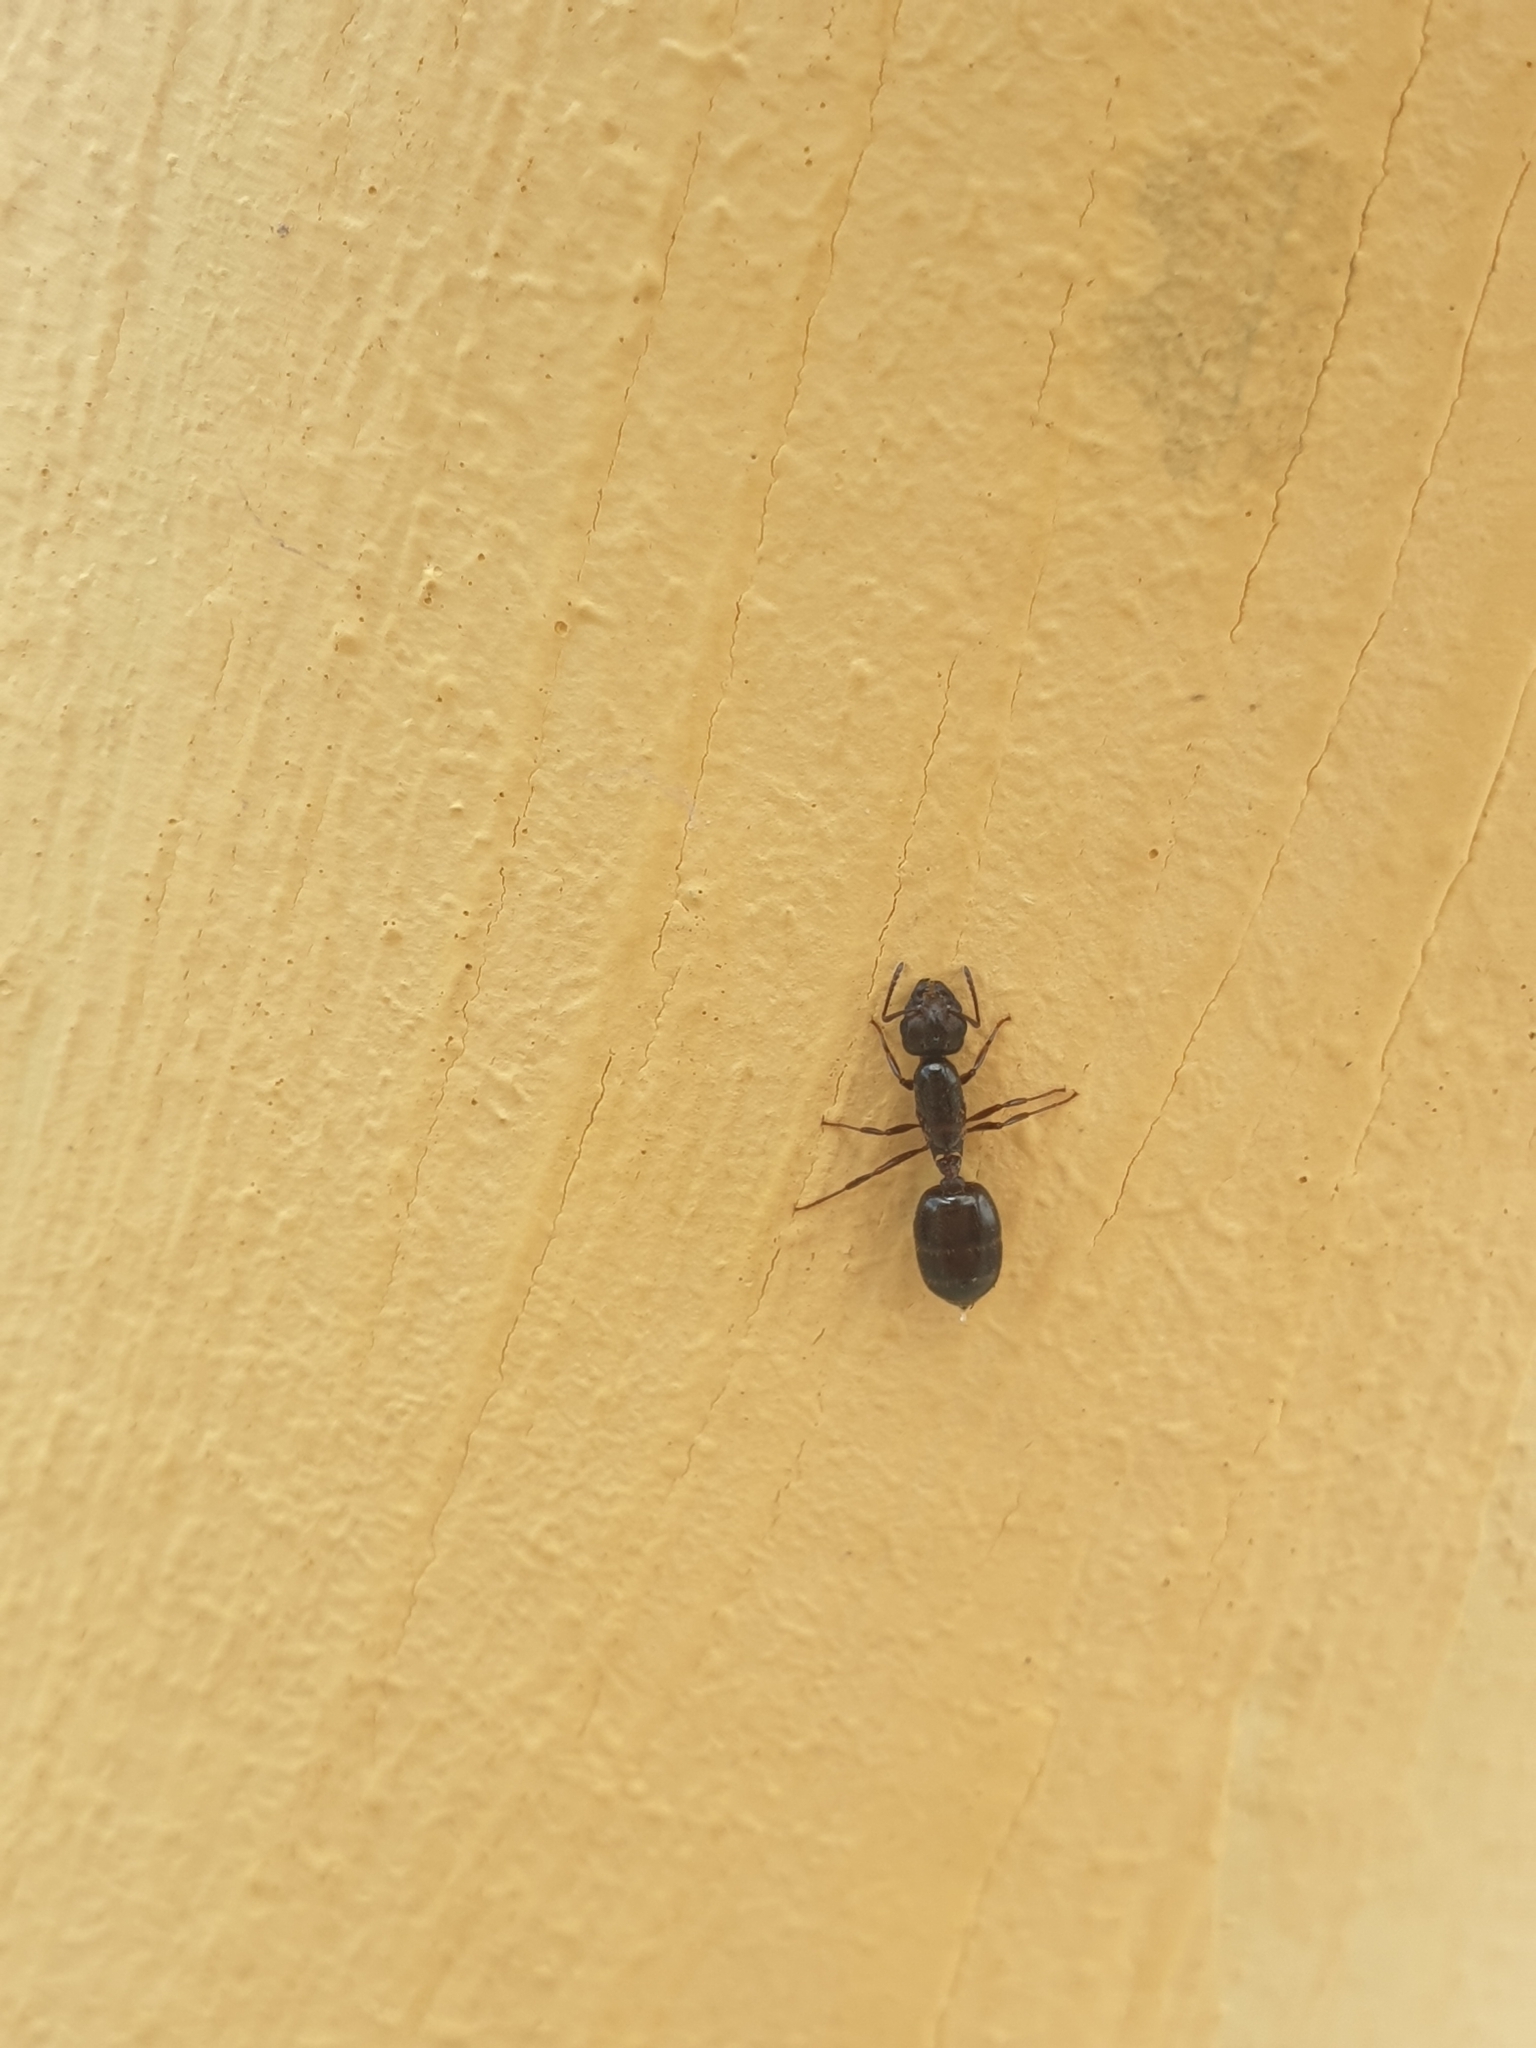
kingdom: Animalia
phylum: Arthropoda
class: Insecta
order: Hymenoptera
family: Formicidae
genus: Crematogaster
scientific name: Crematogaster
